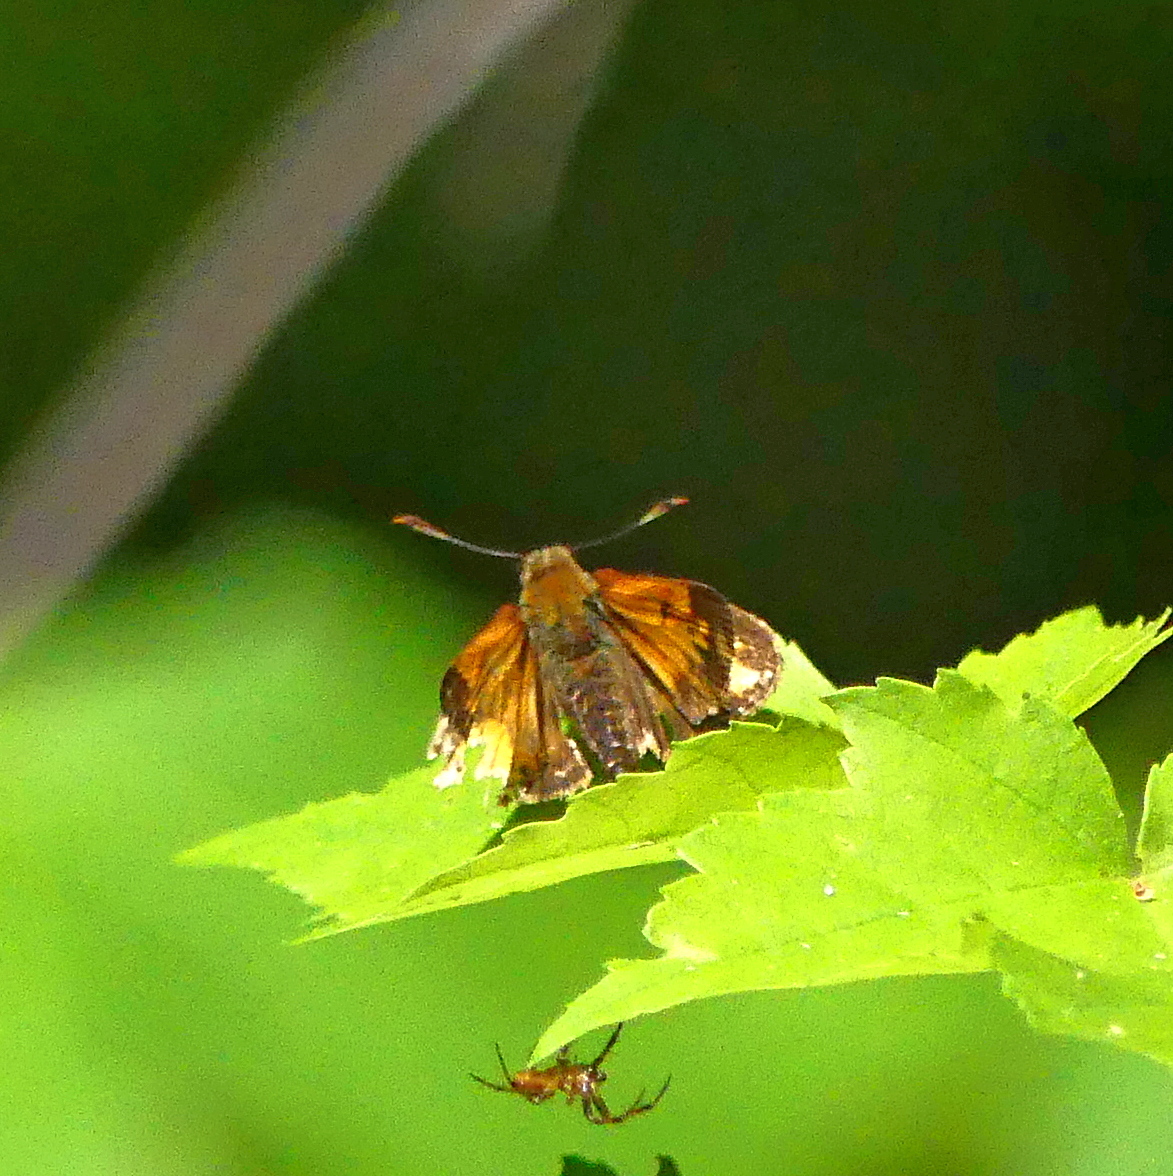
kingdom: Animalia
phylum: Arthropoda
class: Insecta
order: Lepidoptera
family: Hesperiidae
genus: Lon
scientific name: Lon hobomok
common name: Hobomok skipper
